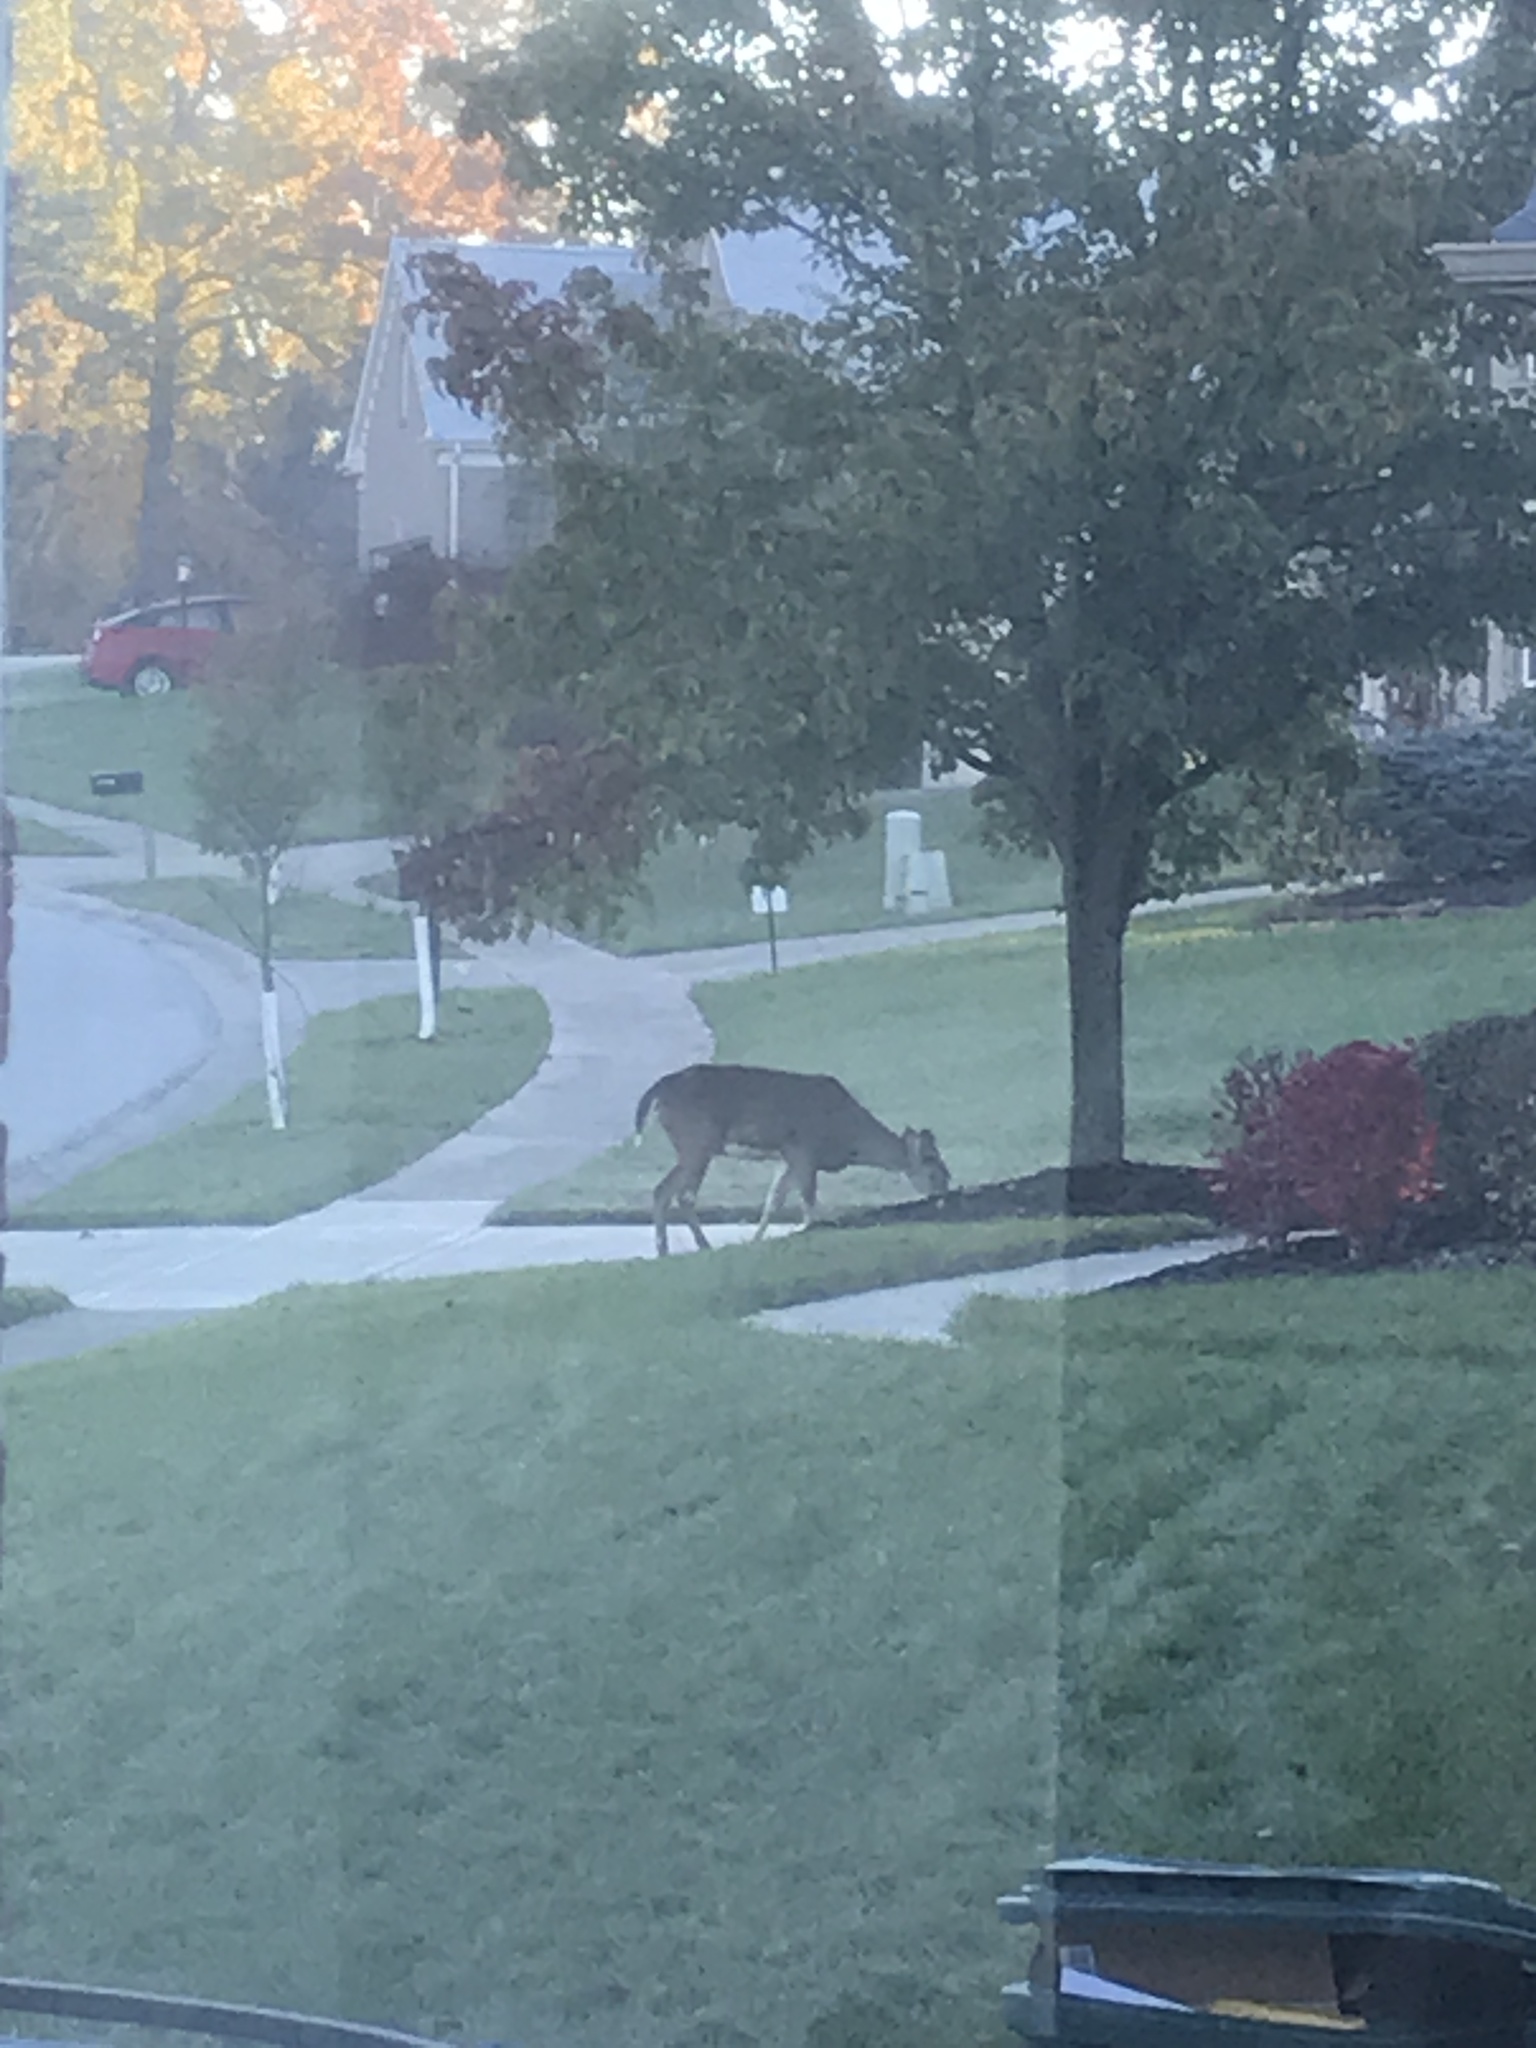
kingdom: Animalia
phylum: Chordata
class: Mammalia
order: Artiodactyla
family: Cervidae
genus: Odocoileus
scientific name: Odocoileus virginianus
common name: White-tailed deer
